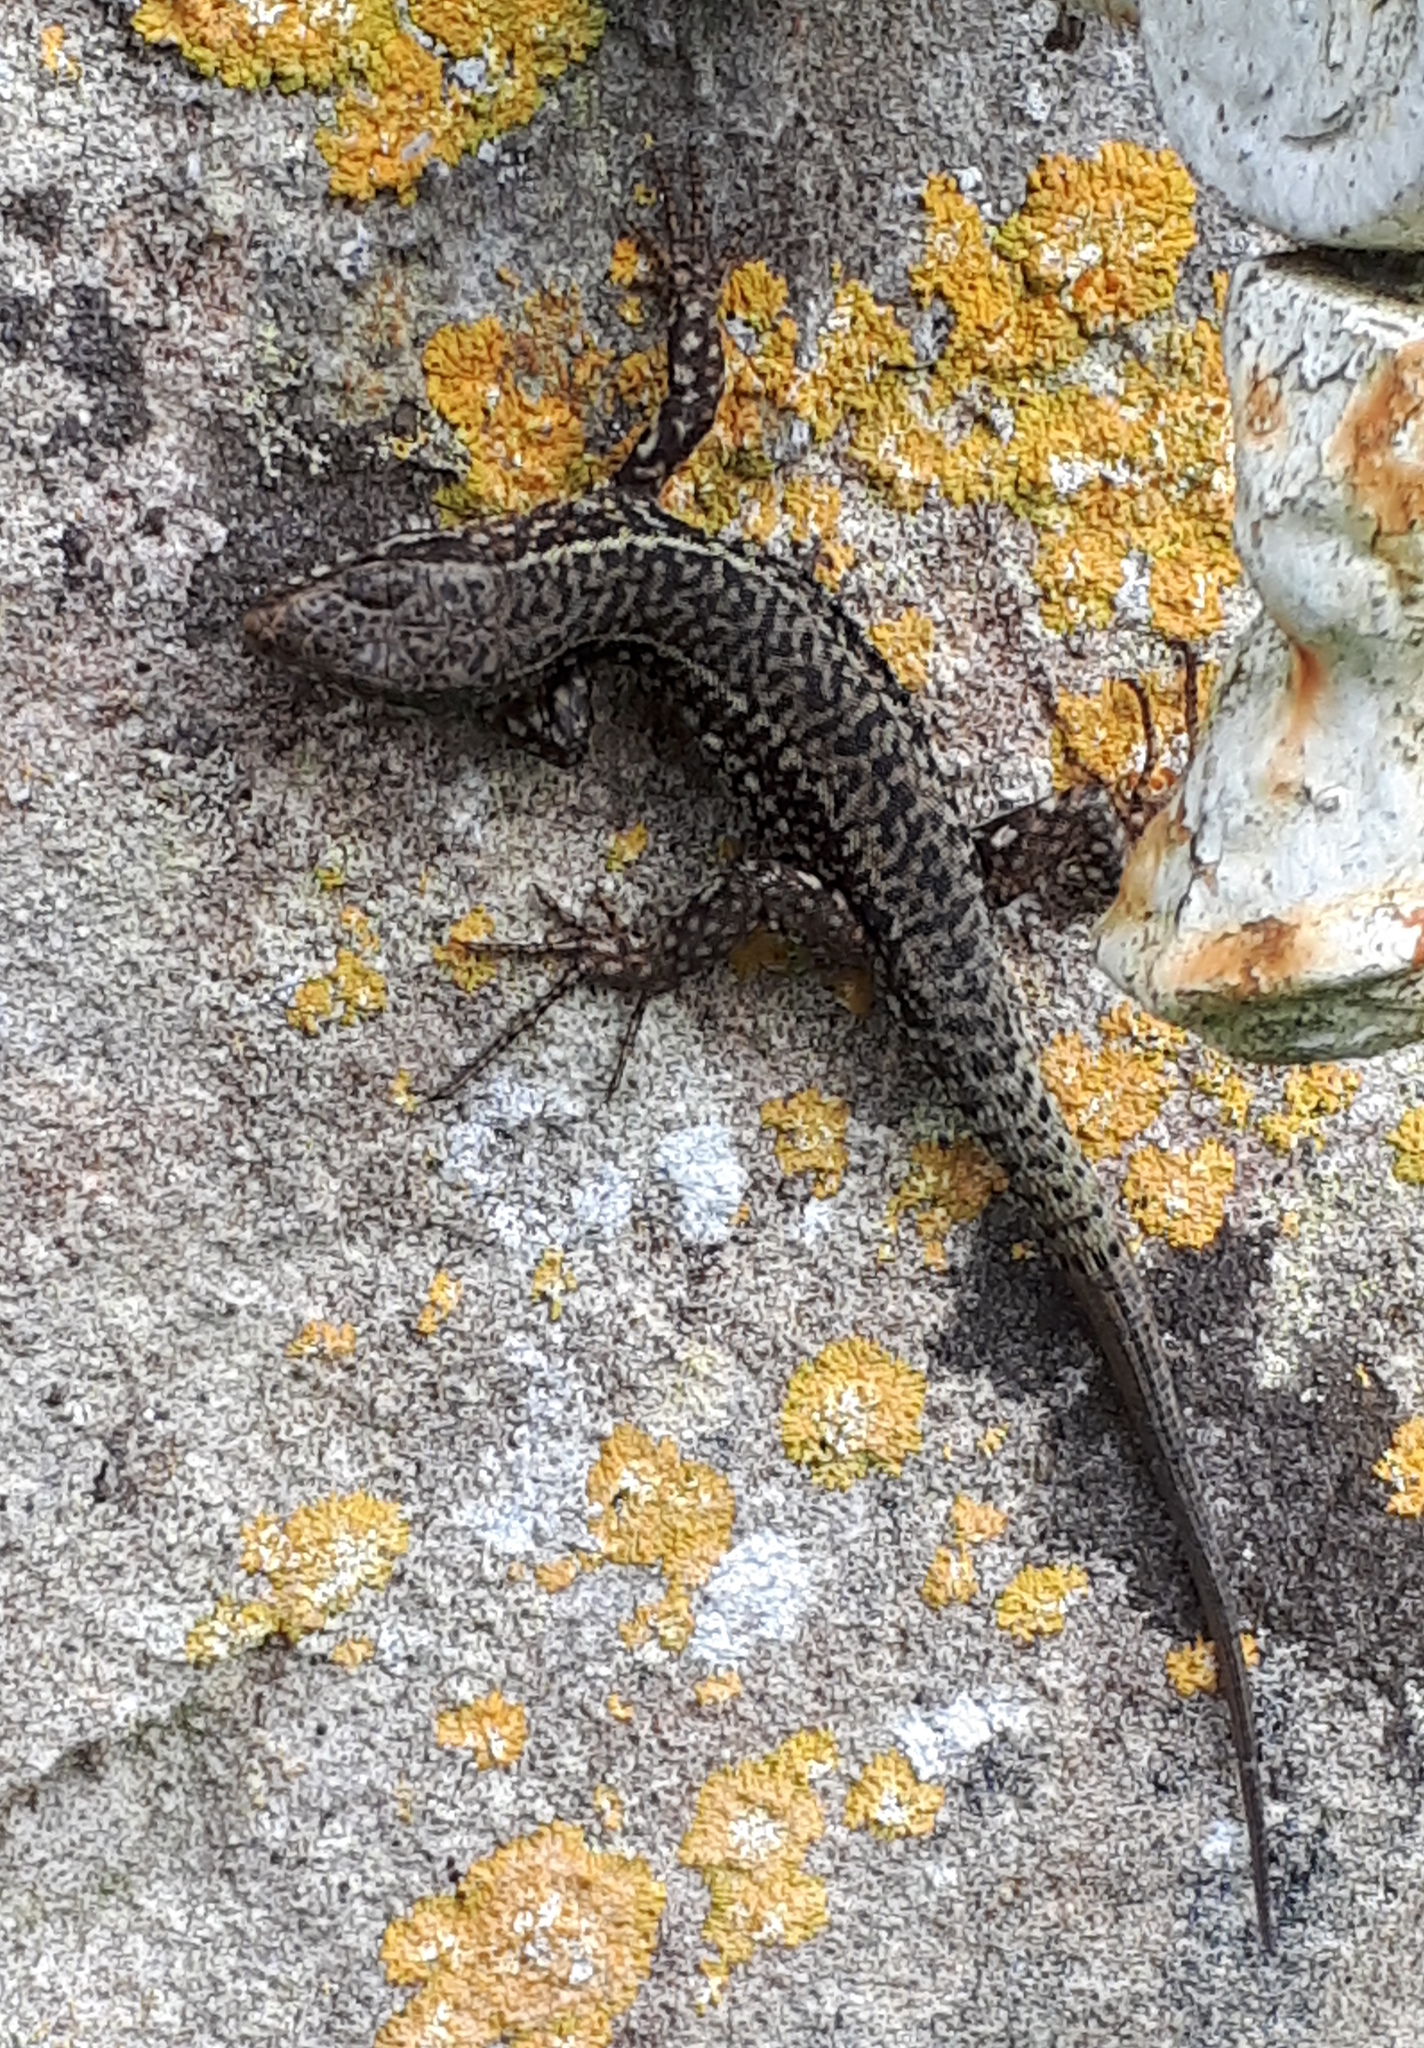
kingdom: Animalia
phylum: Chordata
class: Squamata
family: Lacertidae
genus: Podarcis
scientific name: Podarcis muralis
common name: Common wall lizard
